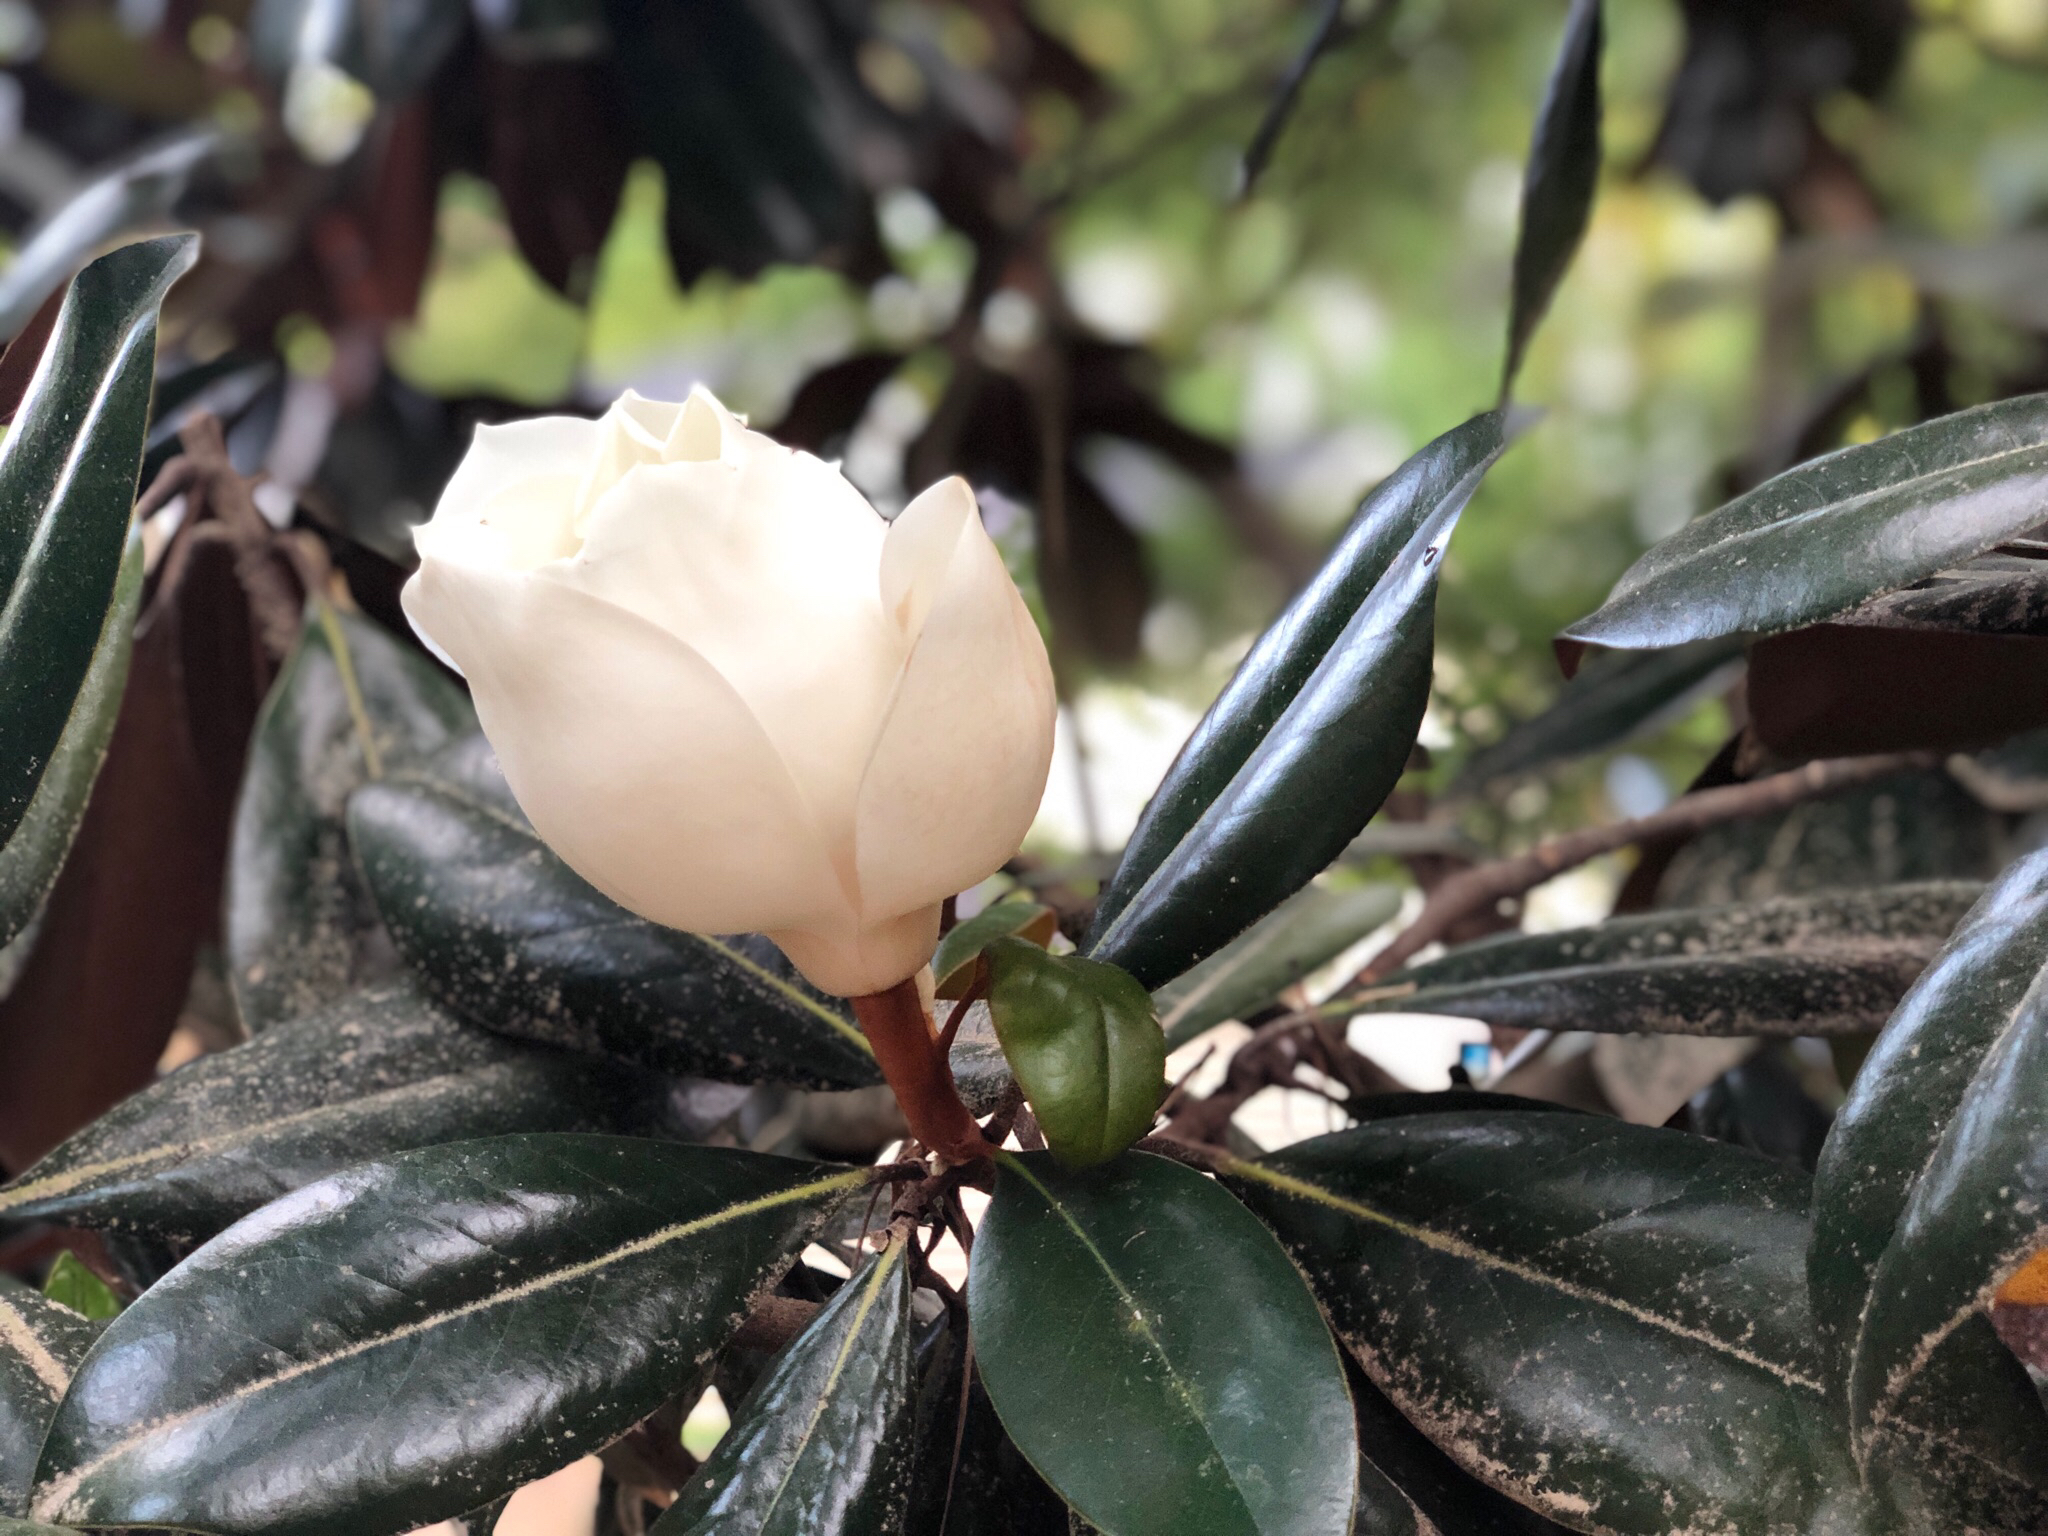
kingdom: Plantae
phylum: Tracheophyta
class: Magnoliopsida
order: Magnoliales
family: Magnoliaceae
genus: Magnolia
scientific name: Magnolia grandiflora
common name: Southern magnolia
